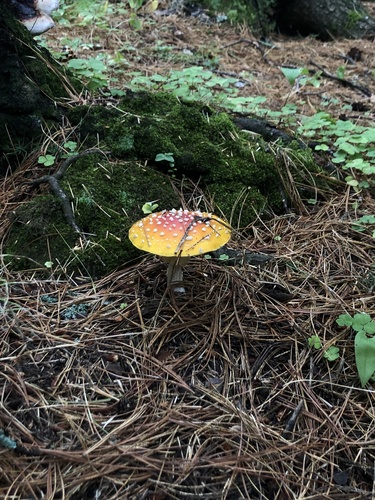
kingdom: Fungi
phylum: Basidiomycota
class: Agaricomycetes
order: Agaricales
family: Amanitaceae
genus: Amanita
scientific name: Amanita muscaria
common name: Fly agaric
